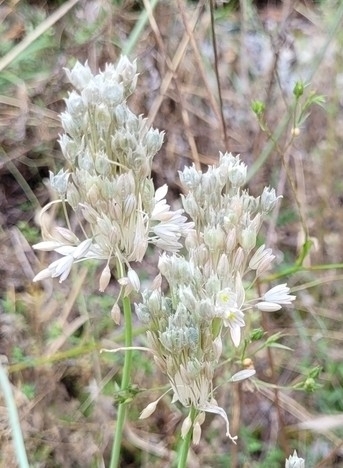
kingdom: Plantae
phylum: Tracheophyta
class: Liliopsida
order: Asparagales
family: Amaryllidaceae
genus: Allium
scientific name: Allium tenuiflorum
